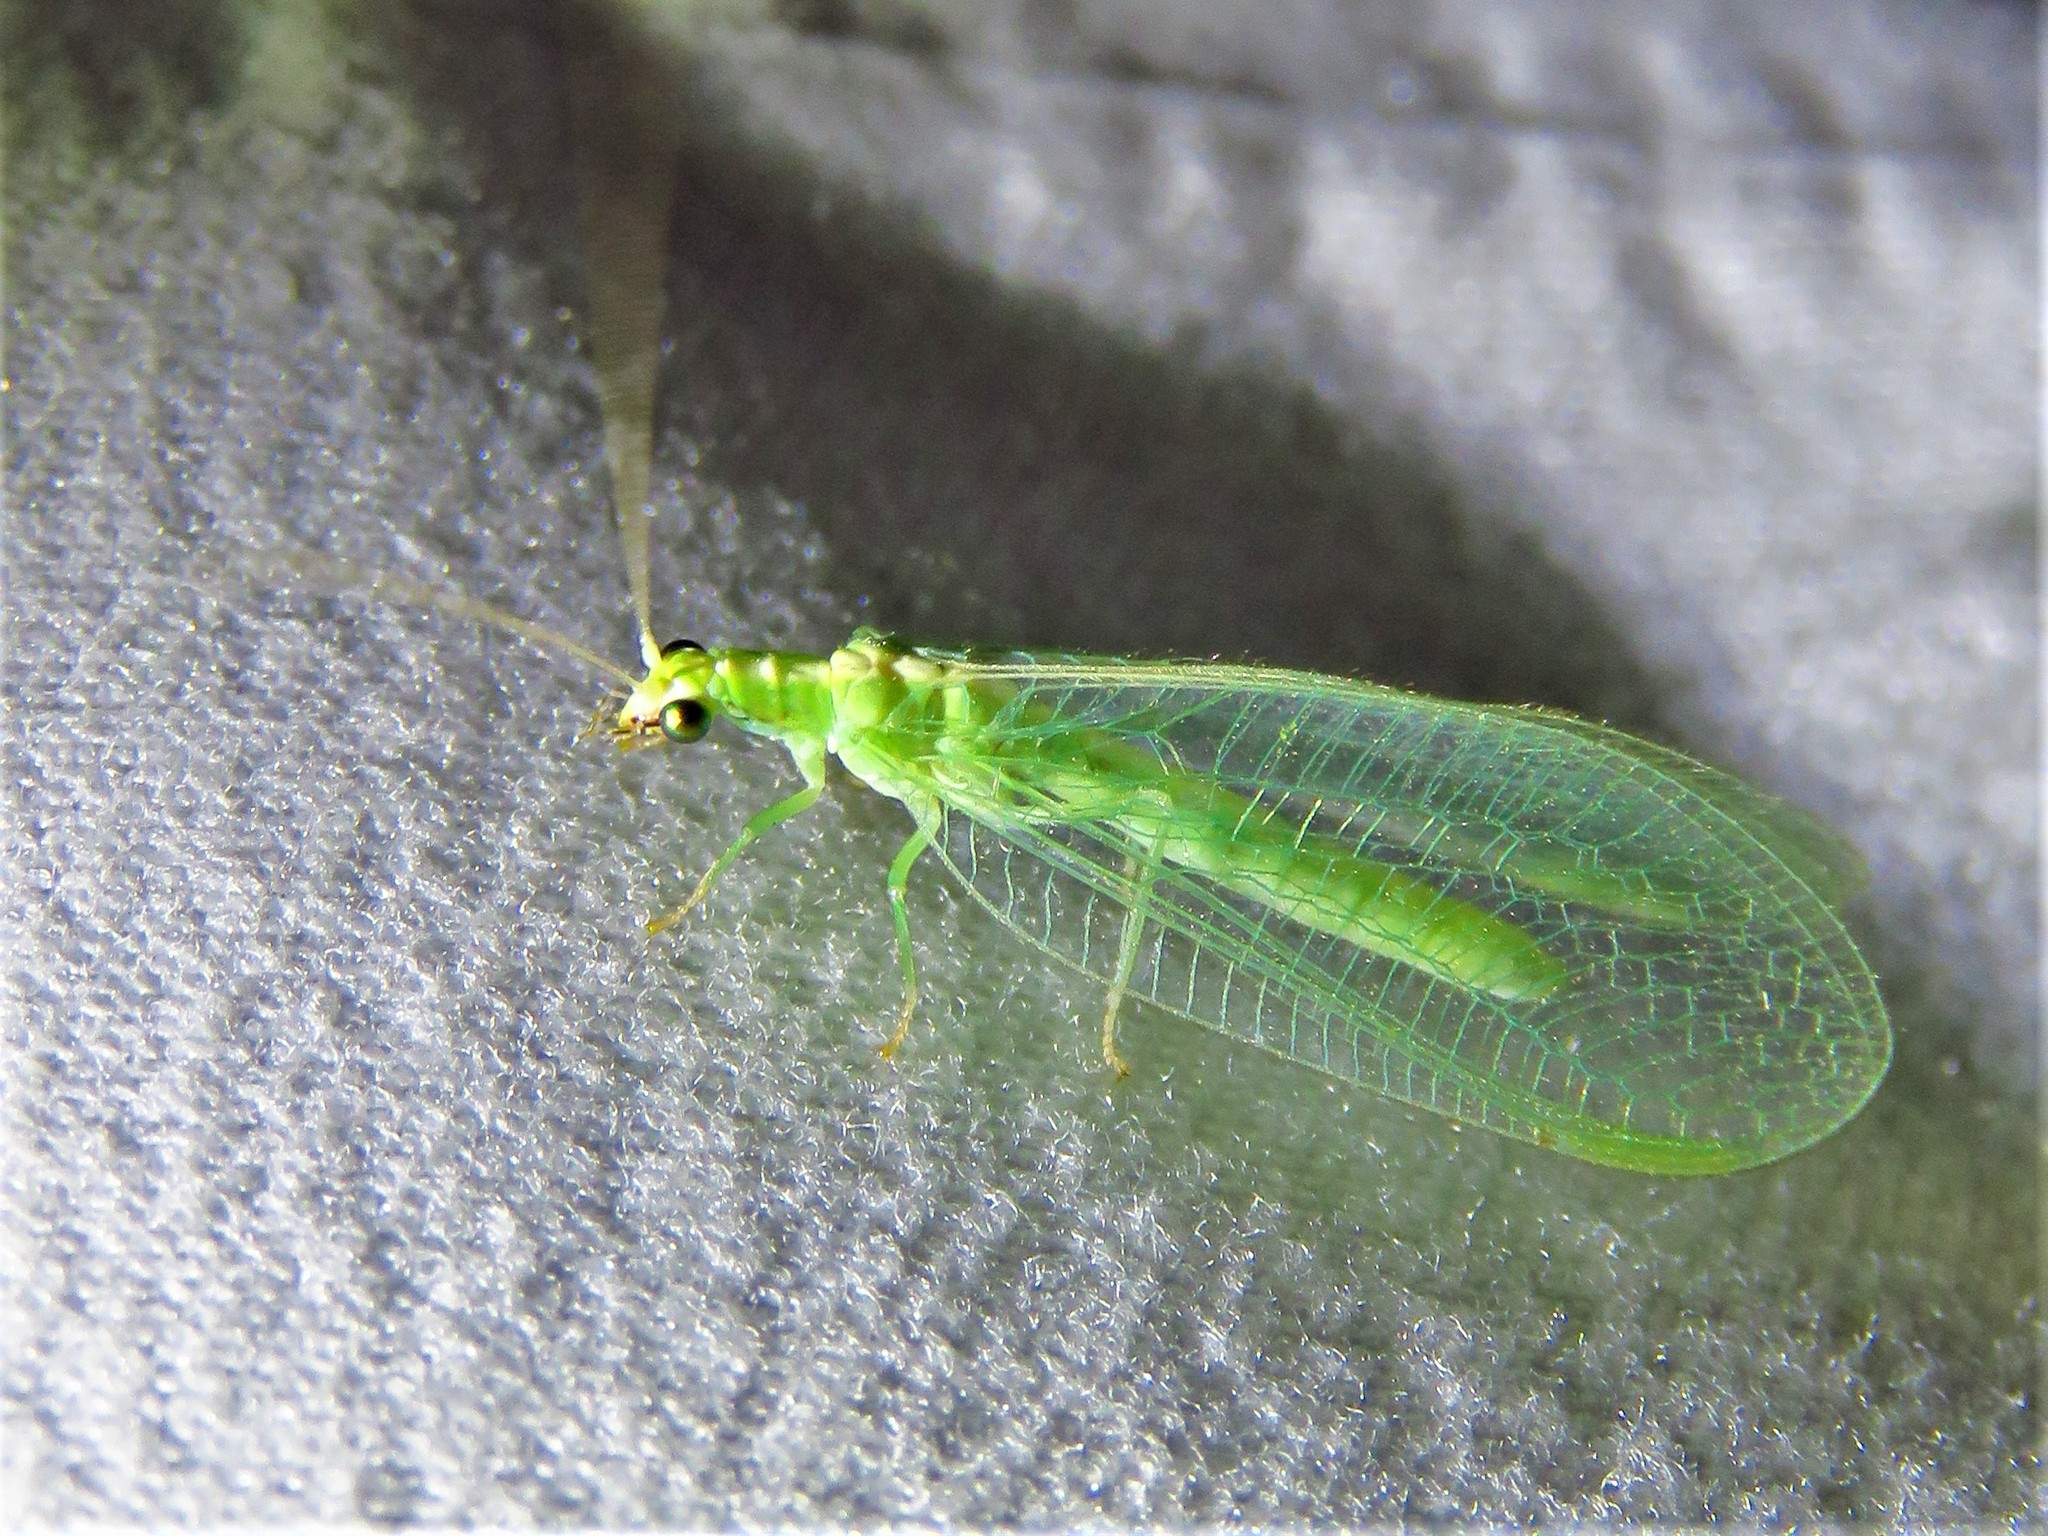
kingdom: Animalia
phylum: Arthropoda
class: Insecta
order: Neuroptera
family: Chrysopidae
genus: Chrysoperla
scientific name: Chrysoperla rufilabris
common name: Red-lipped green lacewing
